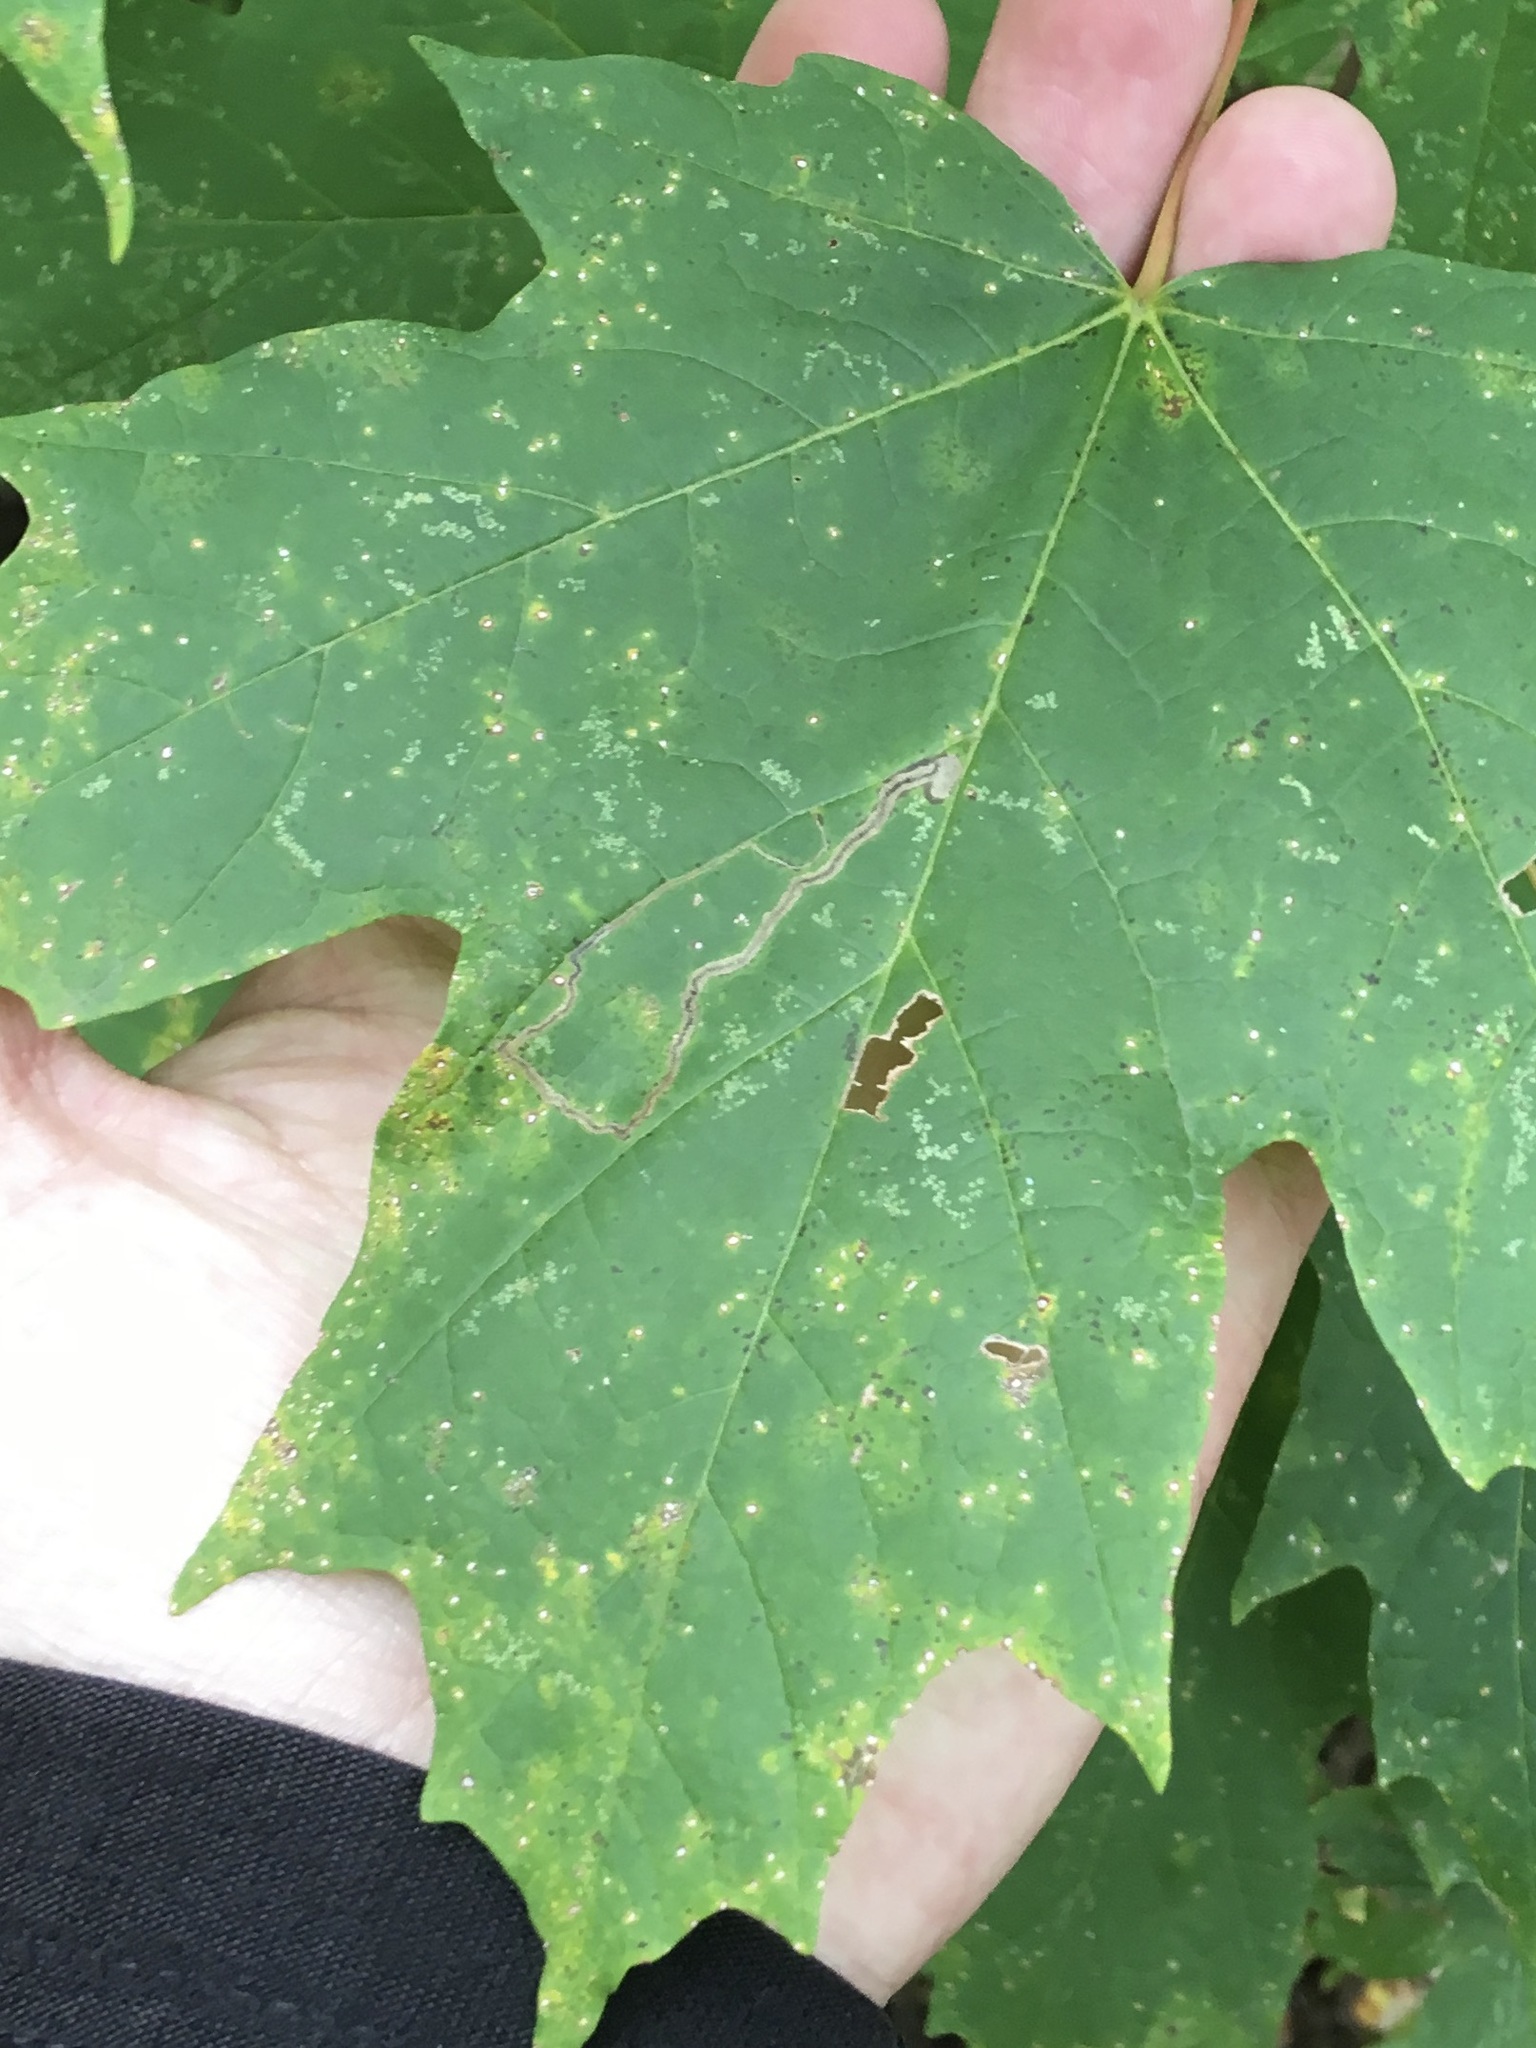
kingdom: Animalia
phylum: Arthropoda
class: Insecta
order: Lepidoptera
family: Nepticulidae
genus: Glaucolepis
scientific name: Glaucolepis saccharella
